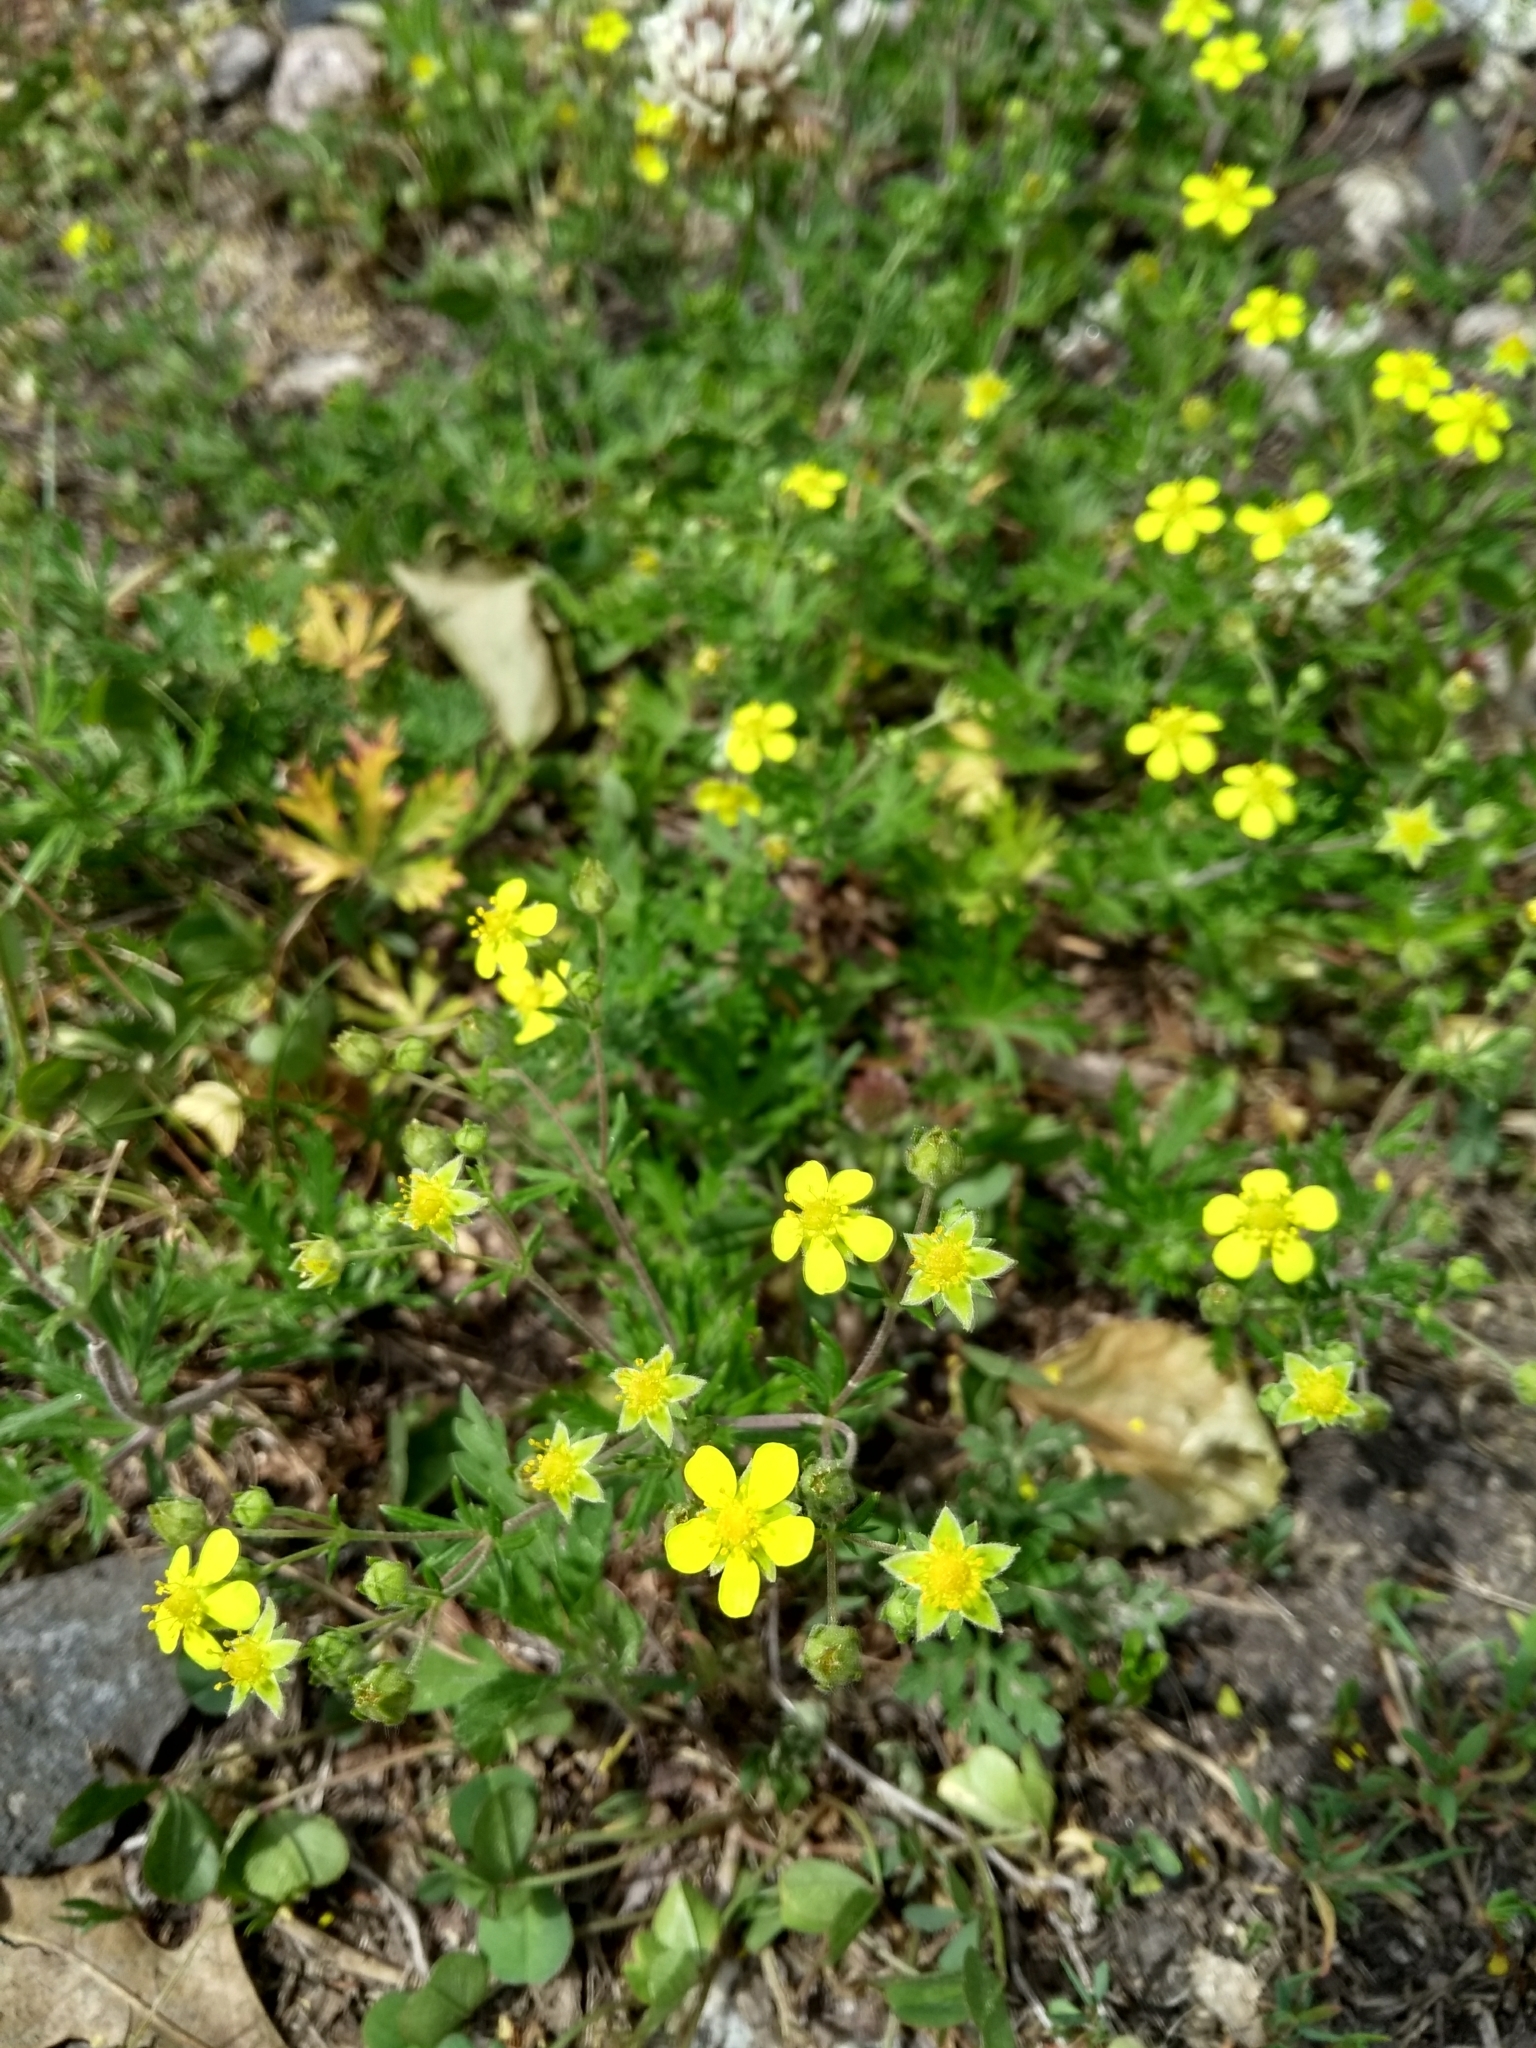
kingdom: Plantae
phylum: Tracheophyta
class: Magnoliopsida
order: Rosales
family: Rosaceae
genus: Potentilla
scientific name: Potentilla argentea
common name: Hoary cinquefoil
